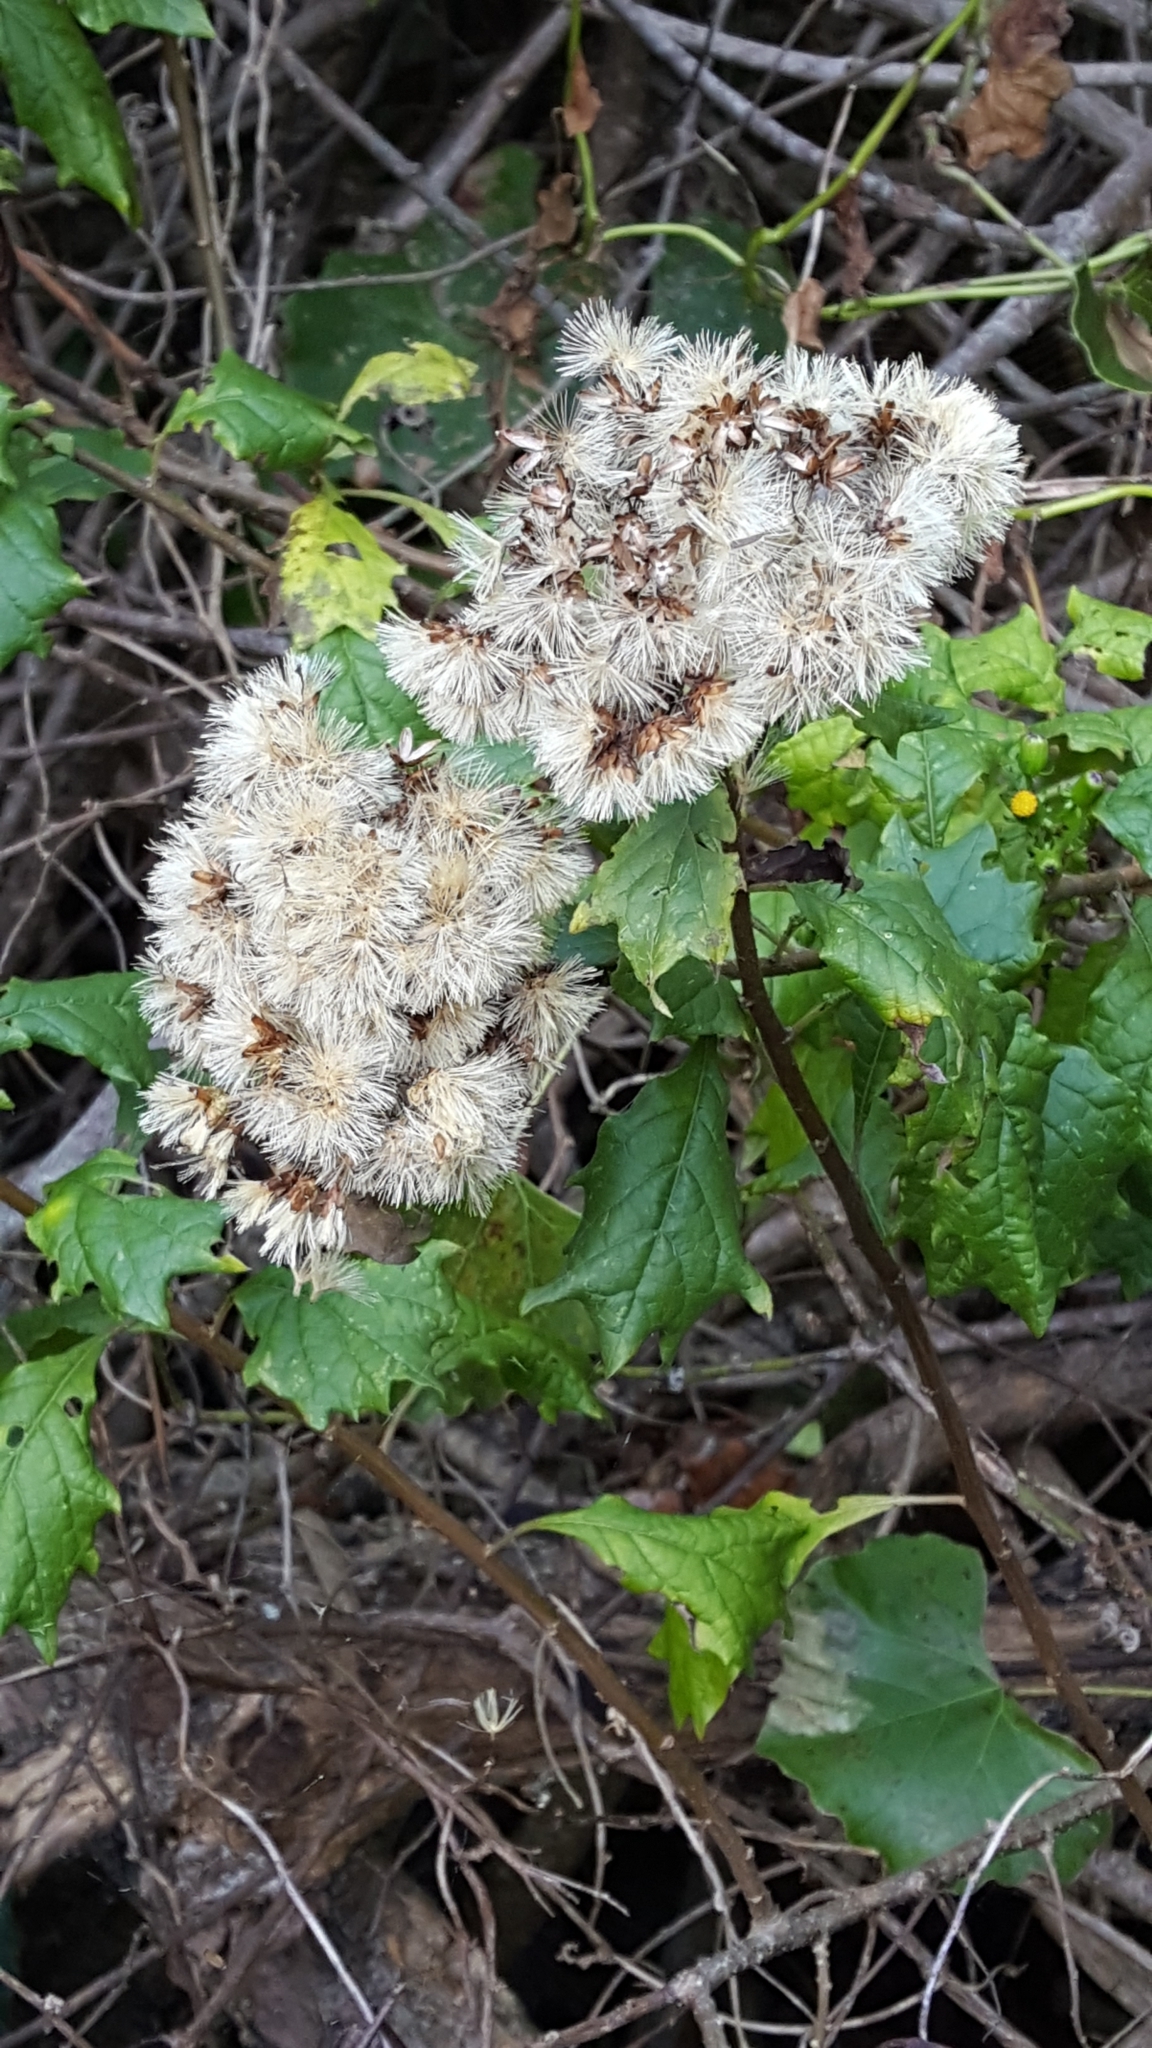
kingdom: Plantae
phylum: Tracheophyta
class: Magnoliopsida
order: Asterales
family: Asteraceae
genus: Gymnanthemum
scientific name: Gymnanthemum capense
